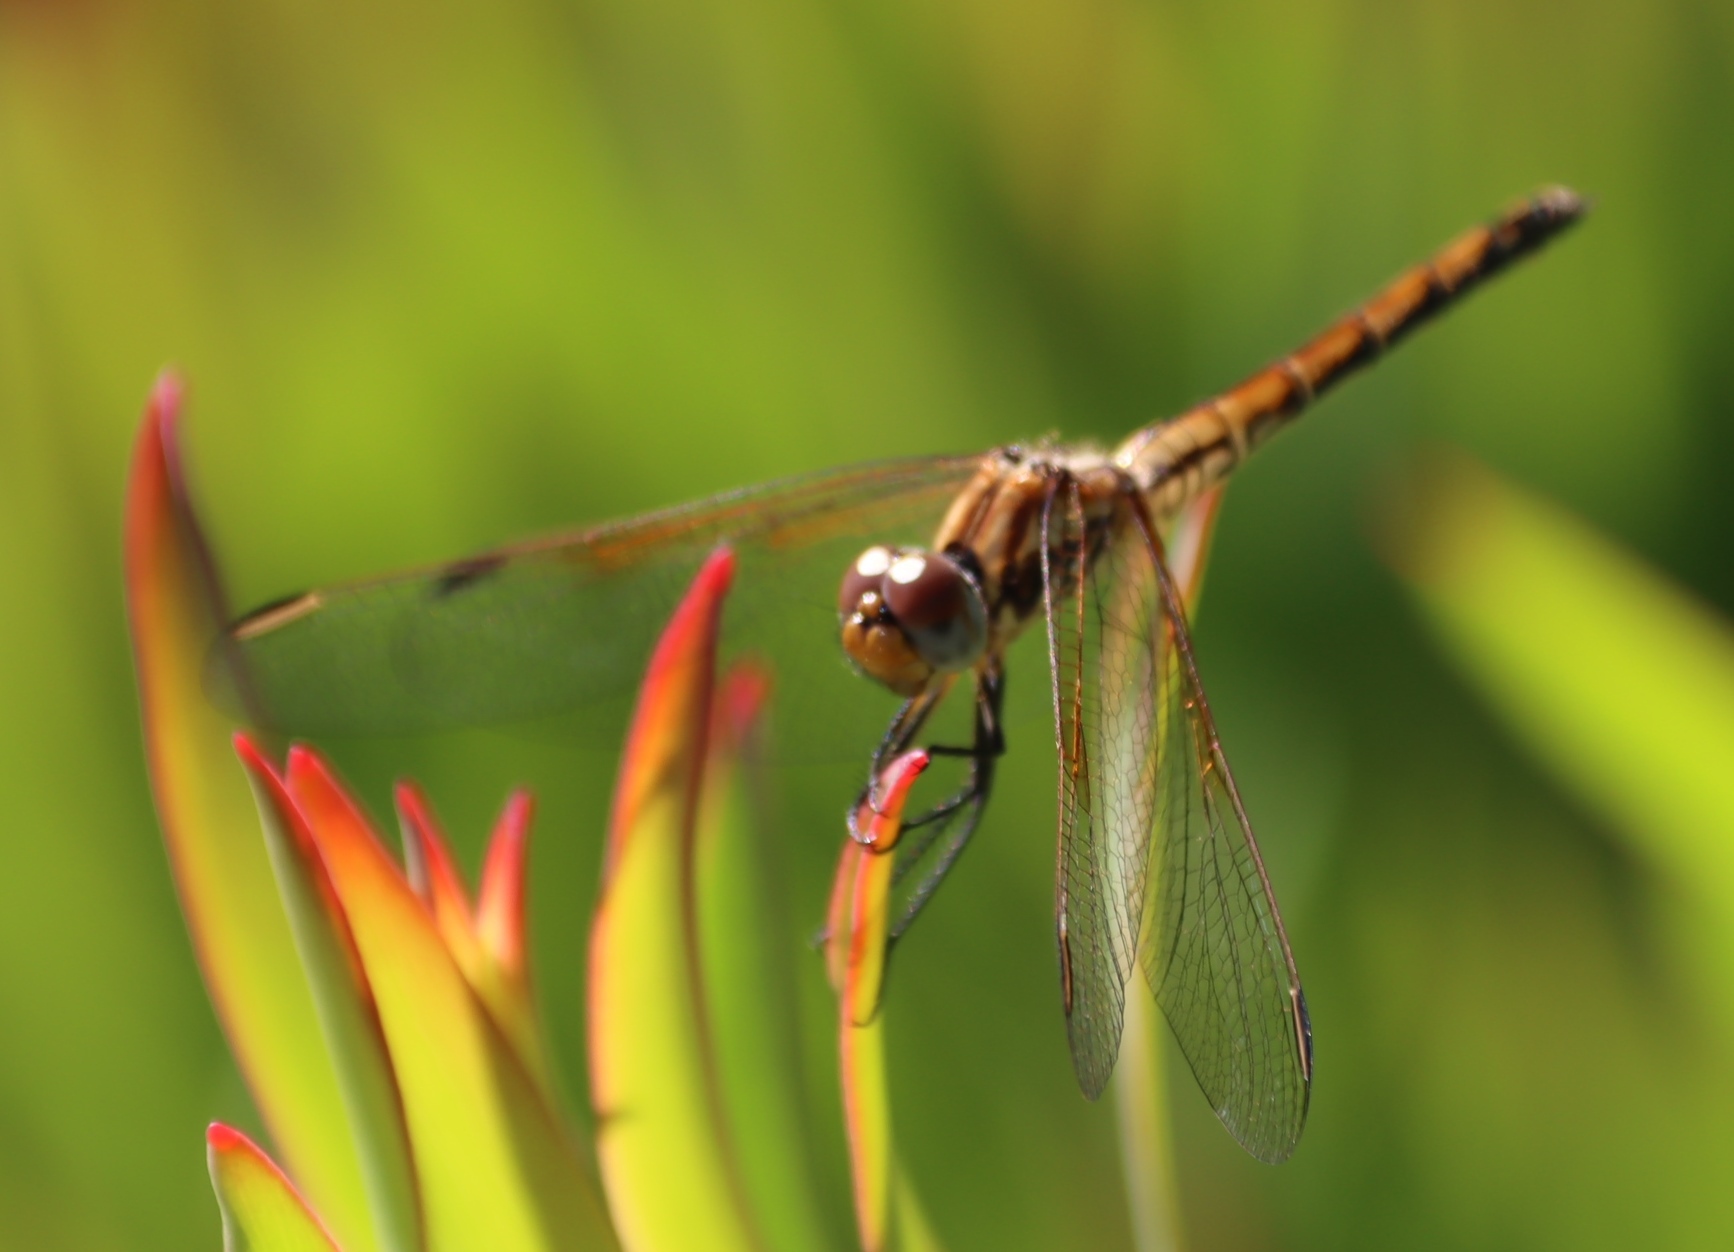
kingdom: Animalia
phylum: Arthropoda
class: Insecta
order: Odonata
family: Libellulidae
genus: Trithemis
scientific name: Trithemis arteriosa
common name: Red-veined dropwing
